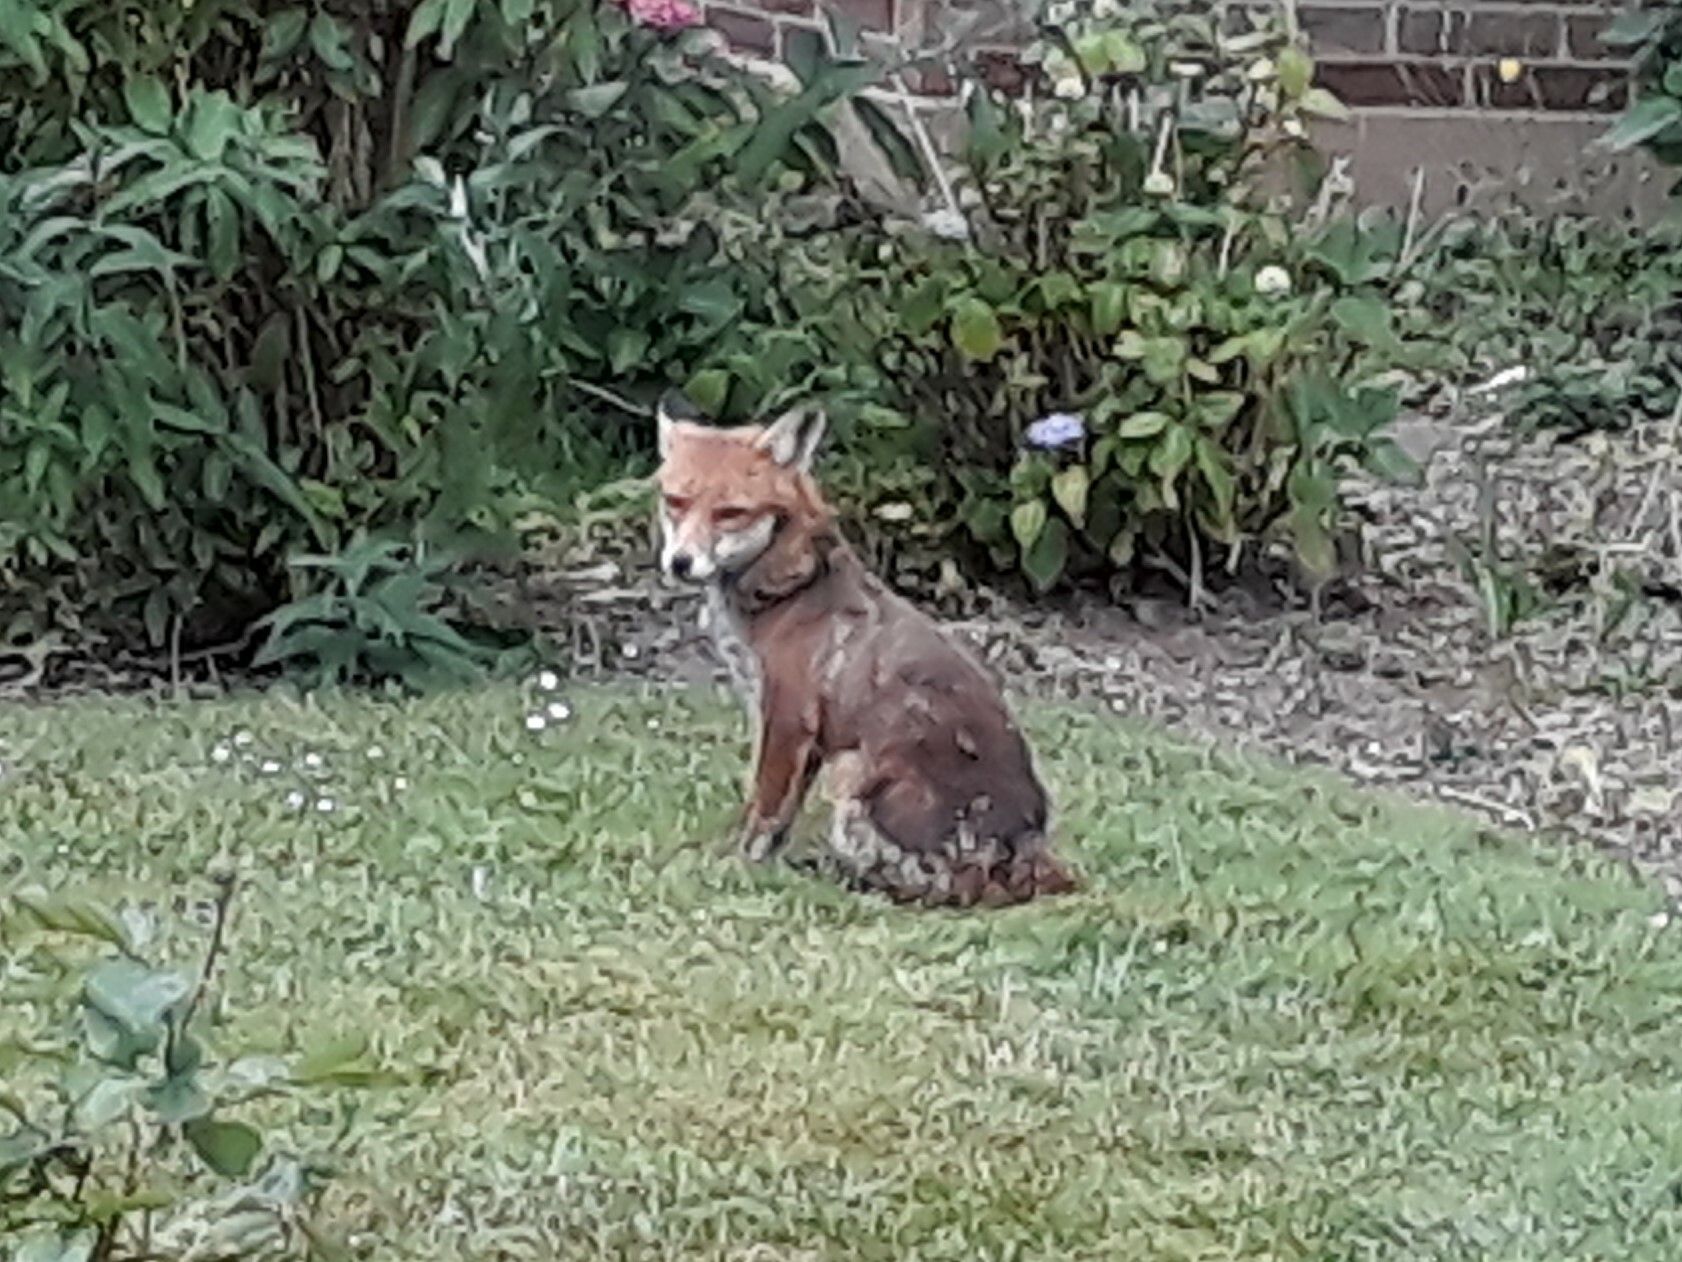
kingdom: Animalia
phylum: Chordata
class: Mammalia
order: Carnivora
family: Canidae
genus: Vulpes
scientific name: Vulpes vulpes
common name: Red fox
